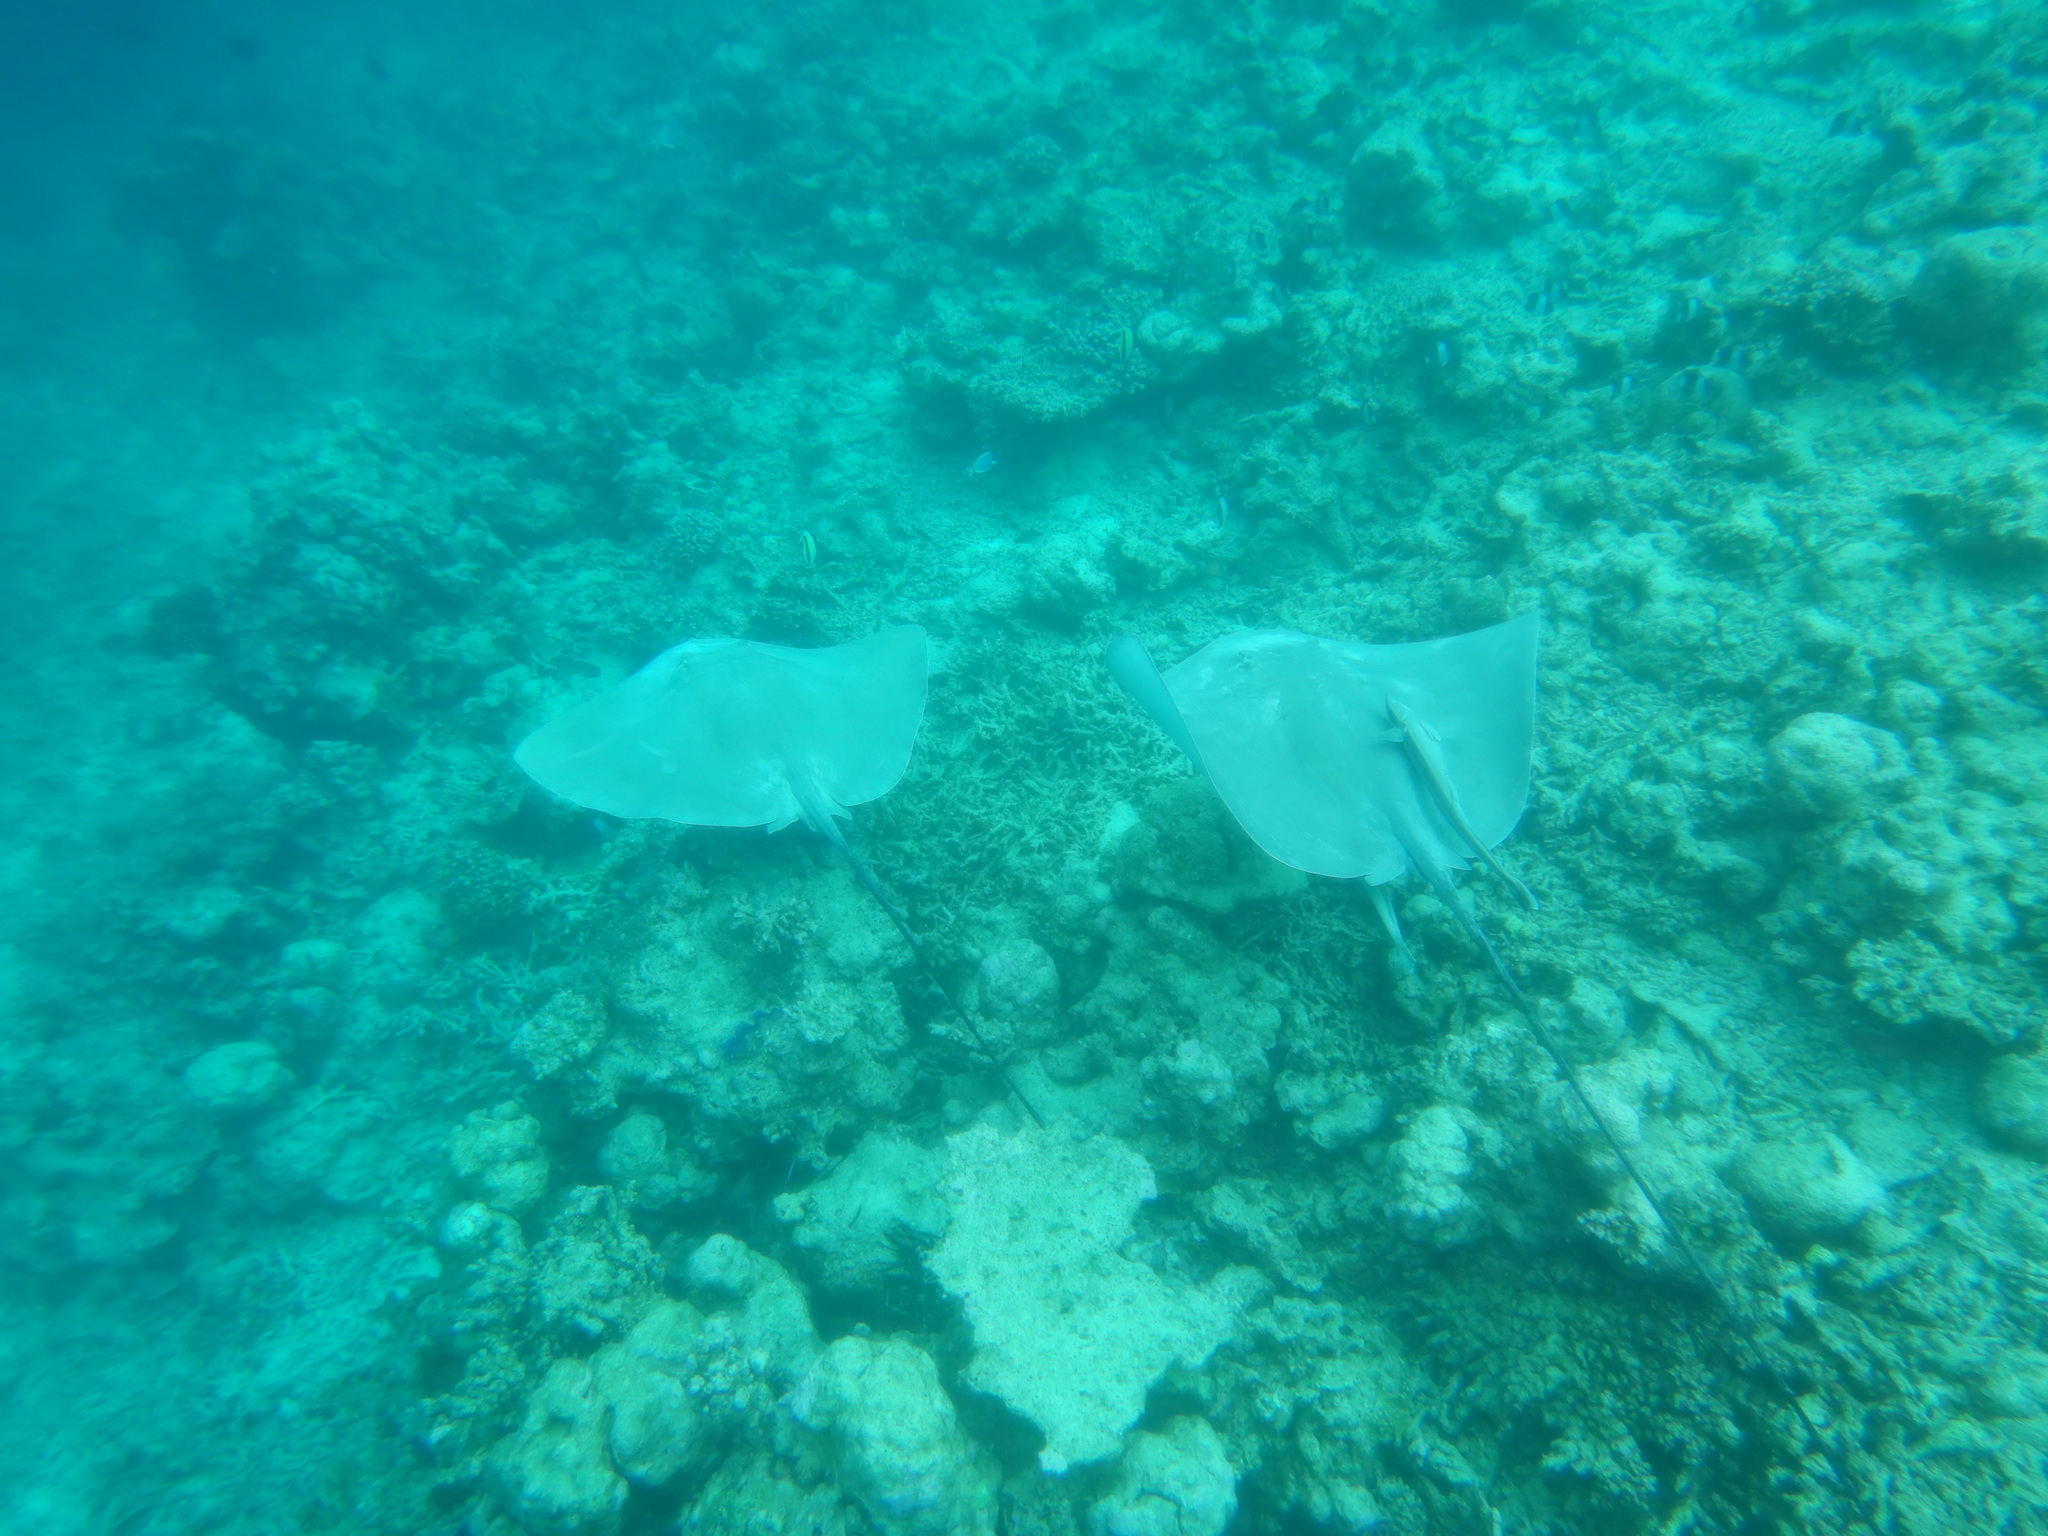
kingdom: Animalia
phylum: Chordata
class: Elasmobranchii
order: Myliobatiformes
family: Dasyatidae
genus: Pateobatis
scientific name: Pateobatis fai
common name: Pink whipray
